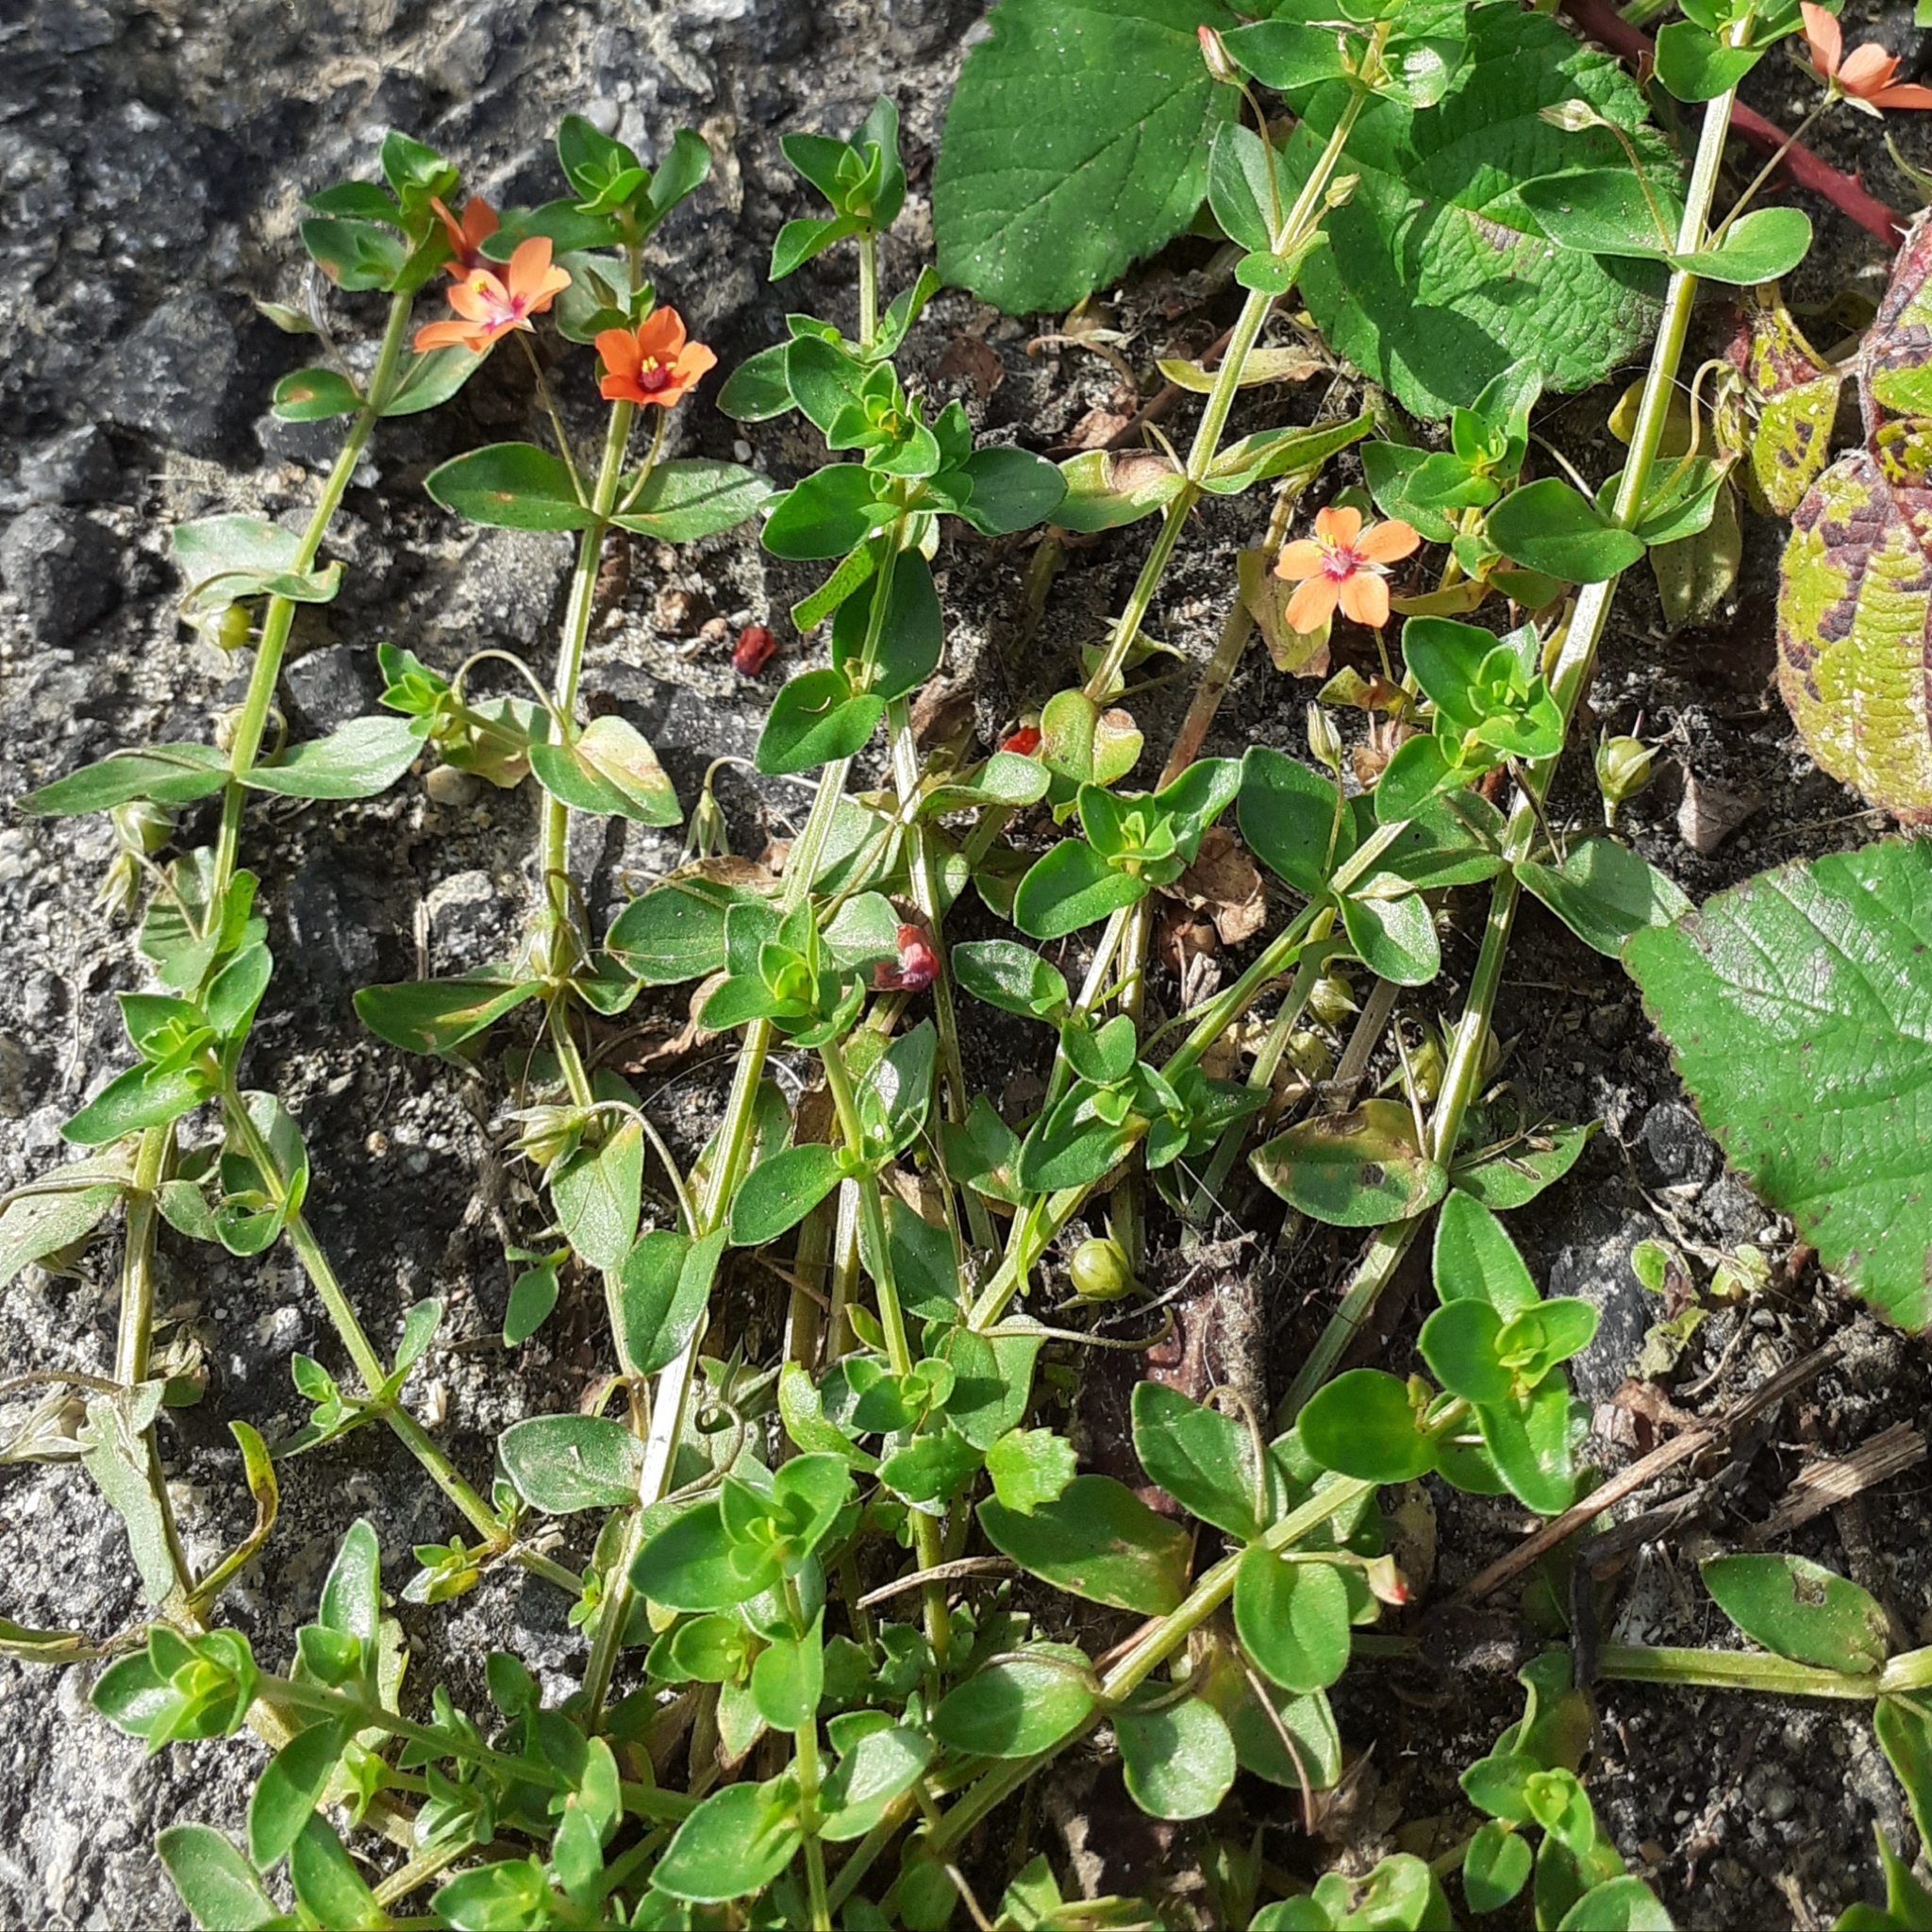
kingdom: Plantae
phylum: Tracheophyta
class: Magnoliopsida
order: Ericales
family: Primulaceae
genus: Lysimachia
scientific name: Lysimachia arvensis
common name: Scarlet pimpernel
